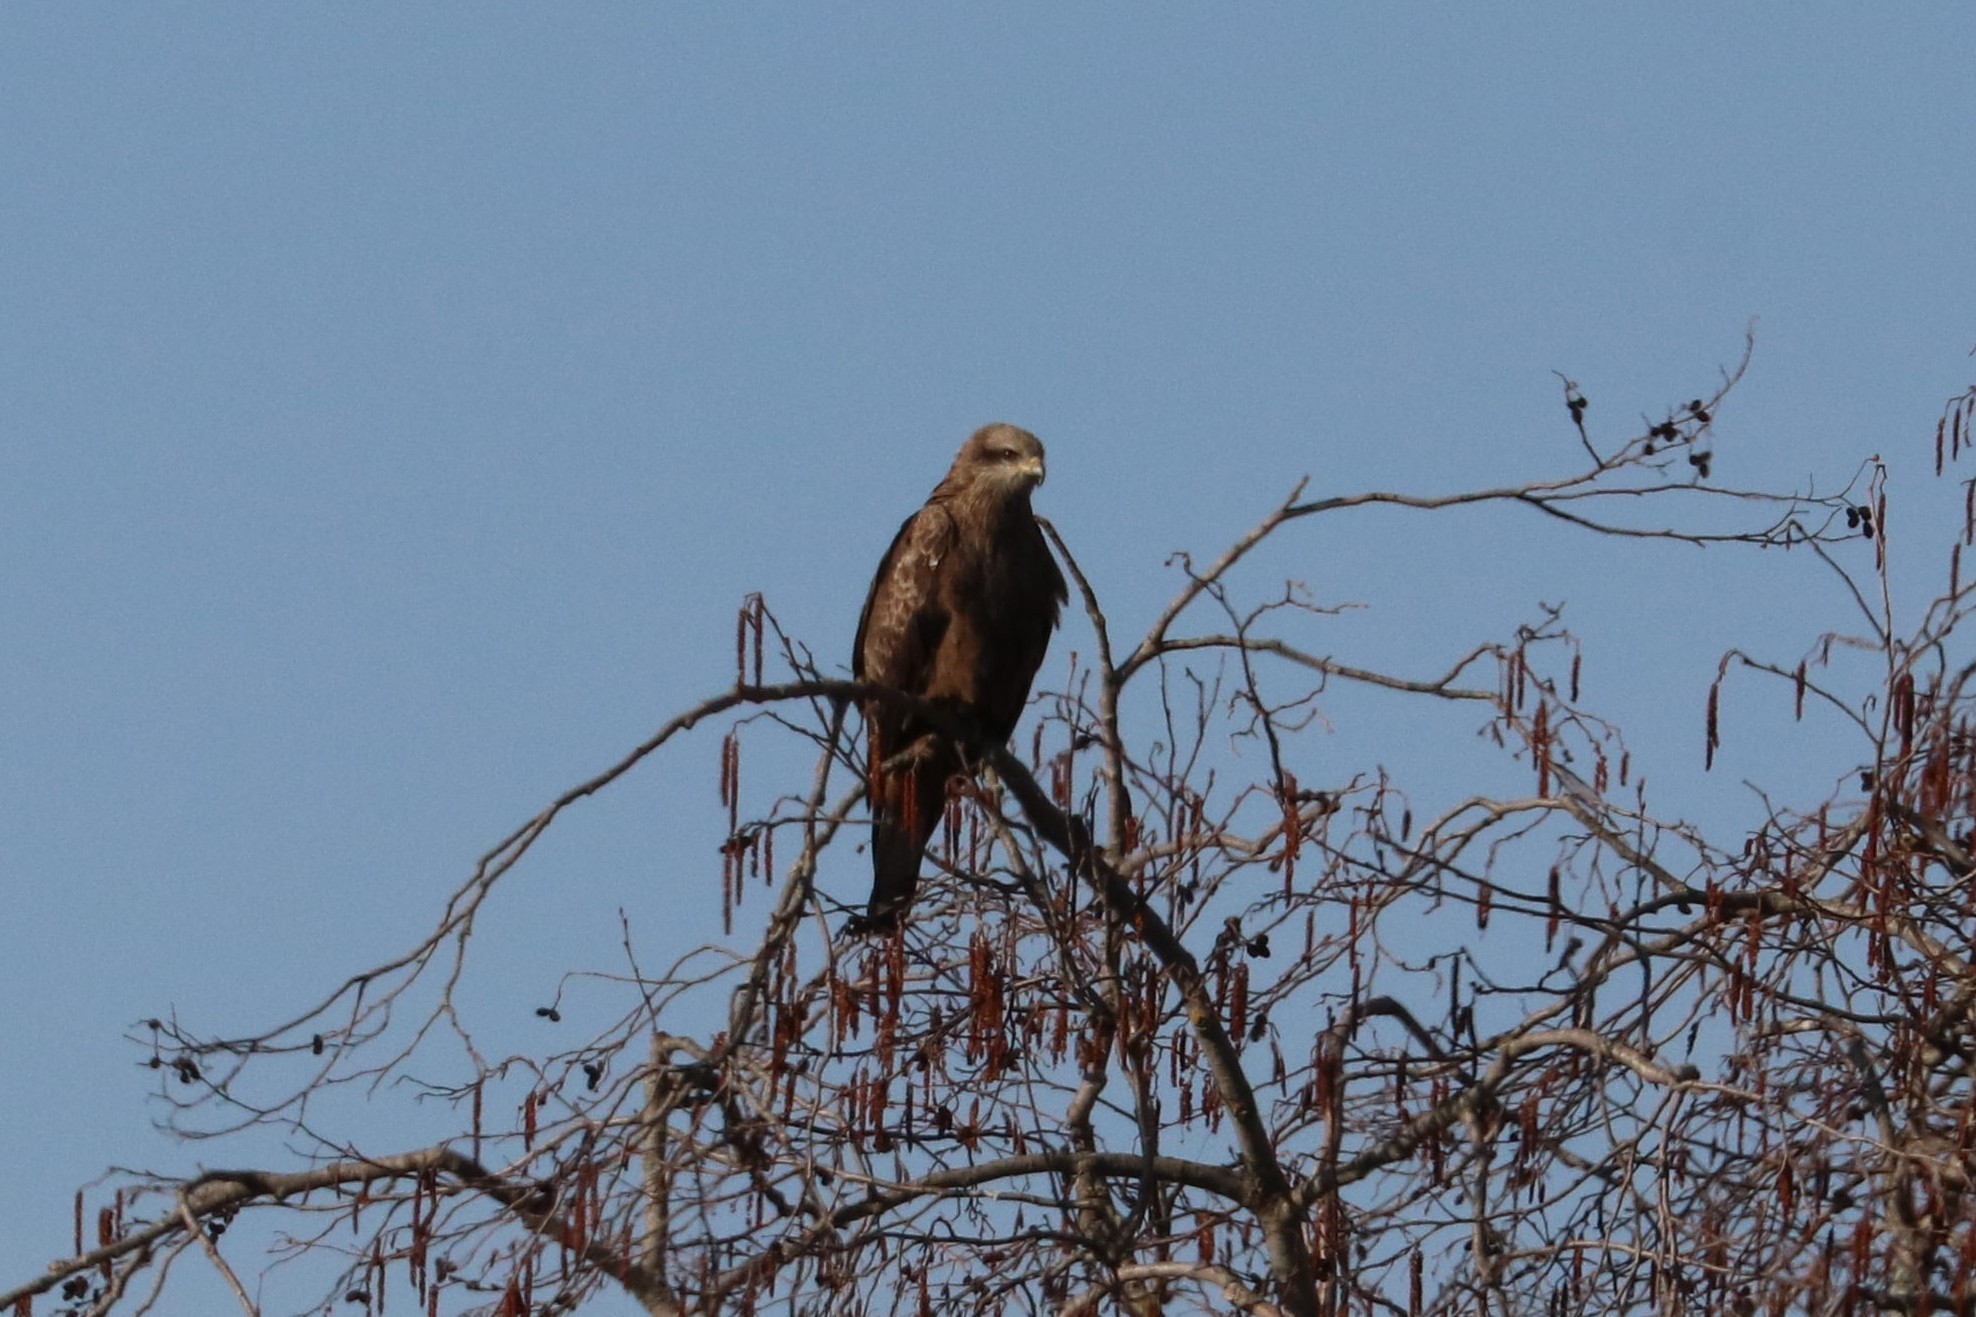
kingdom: Animalia
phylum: Chordata
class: Aves
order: Accipitriformes
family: Accipitridae
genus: Milvus
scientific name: Milvus migrans
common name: Black kite
